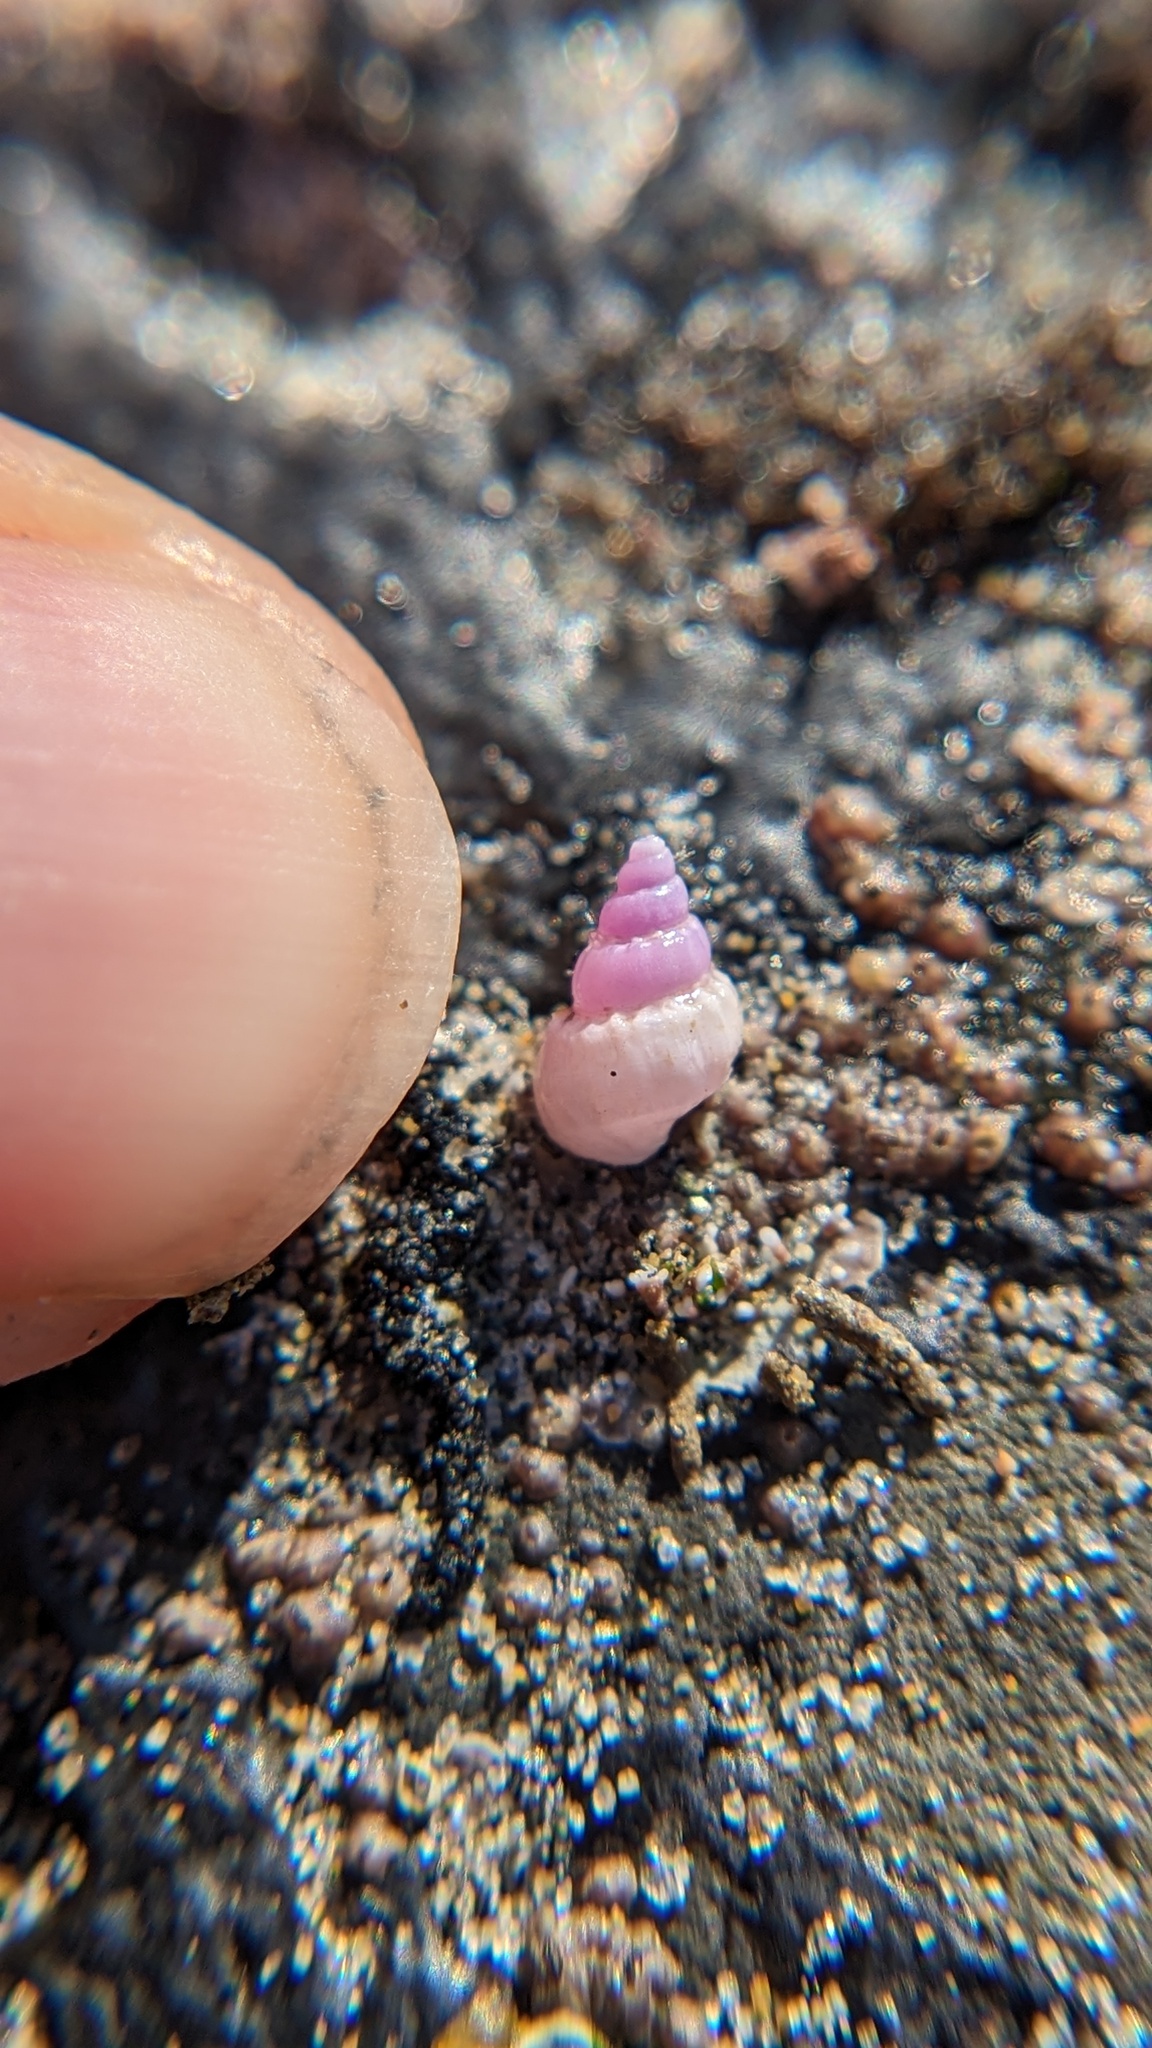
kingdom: Animalia
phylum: Mollusca
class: Gastropoda
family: Epitoniidae
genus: Opalia
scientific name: Opalia funiculata
